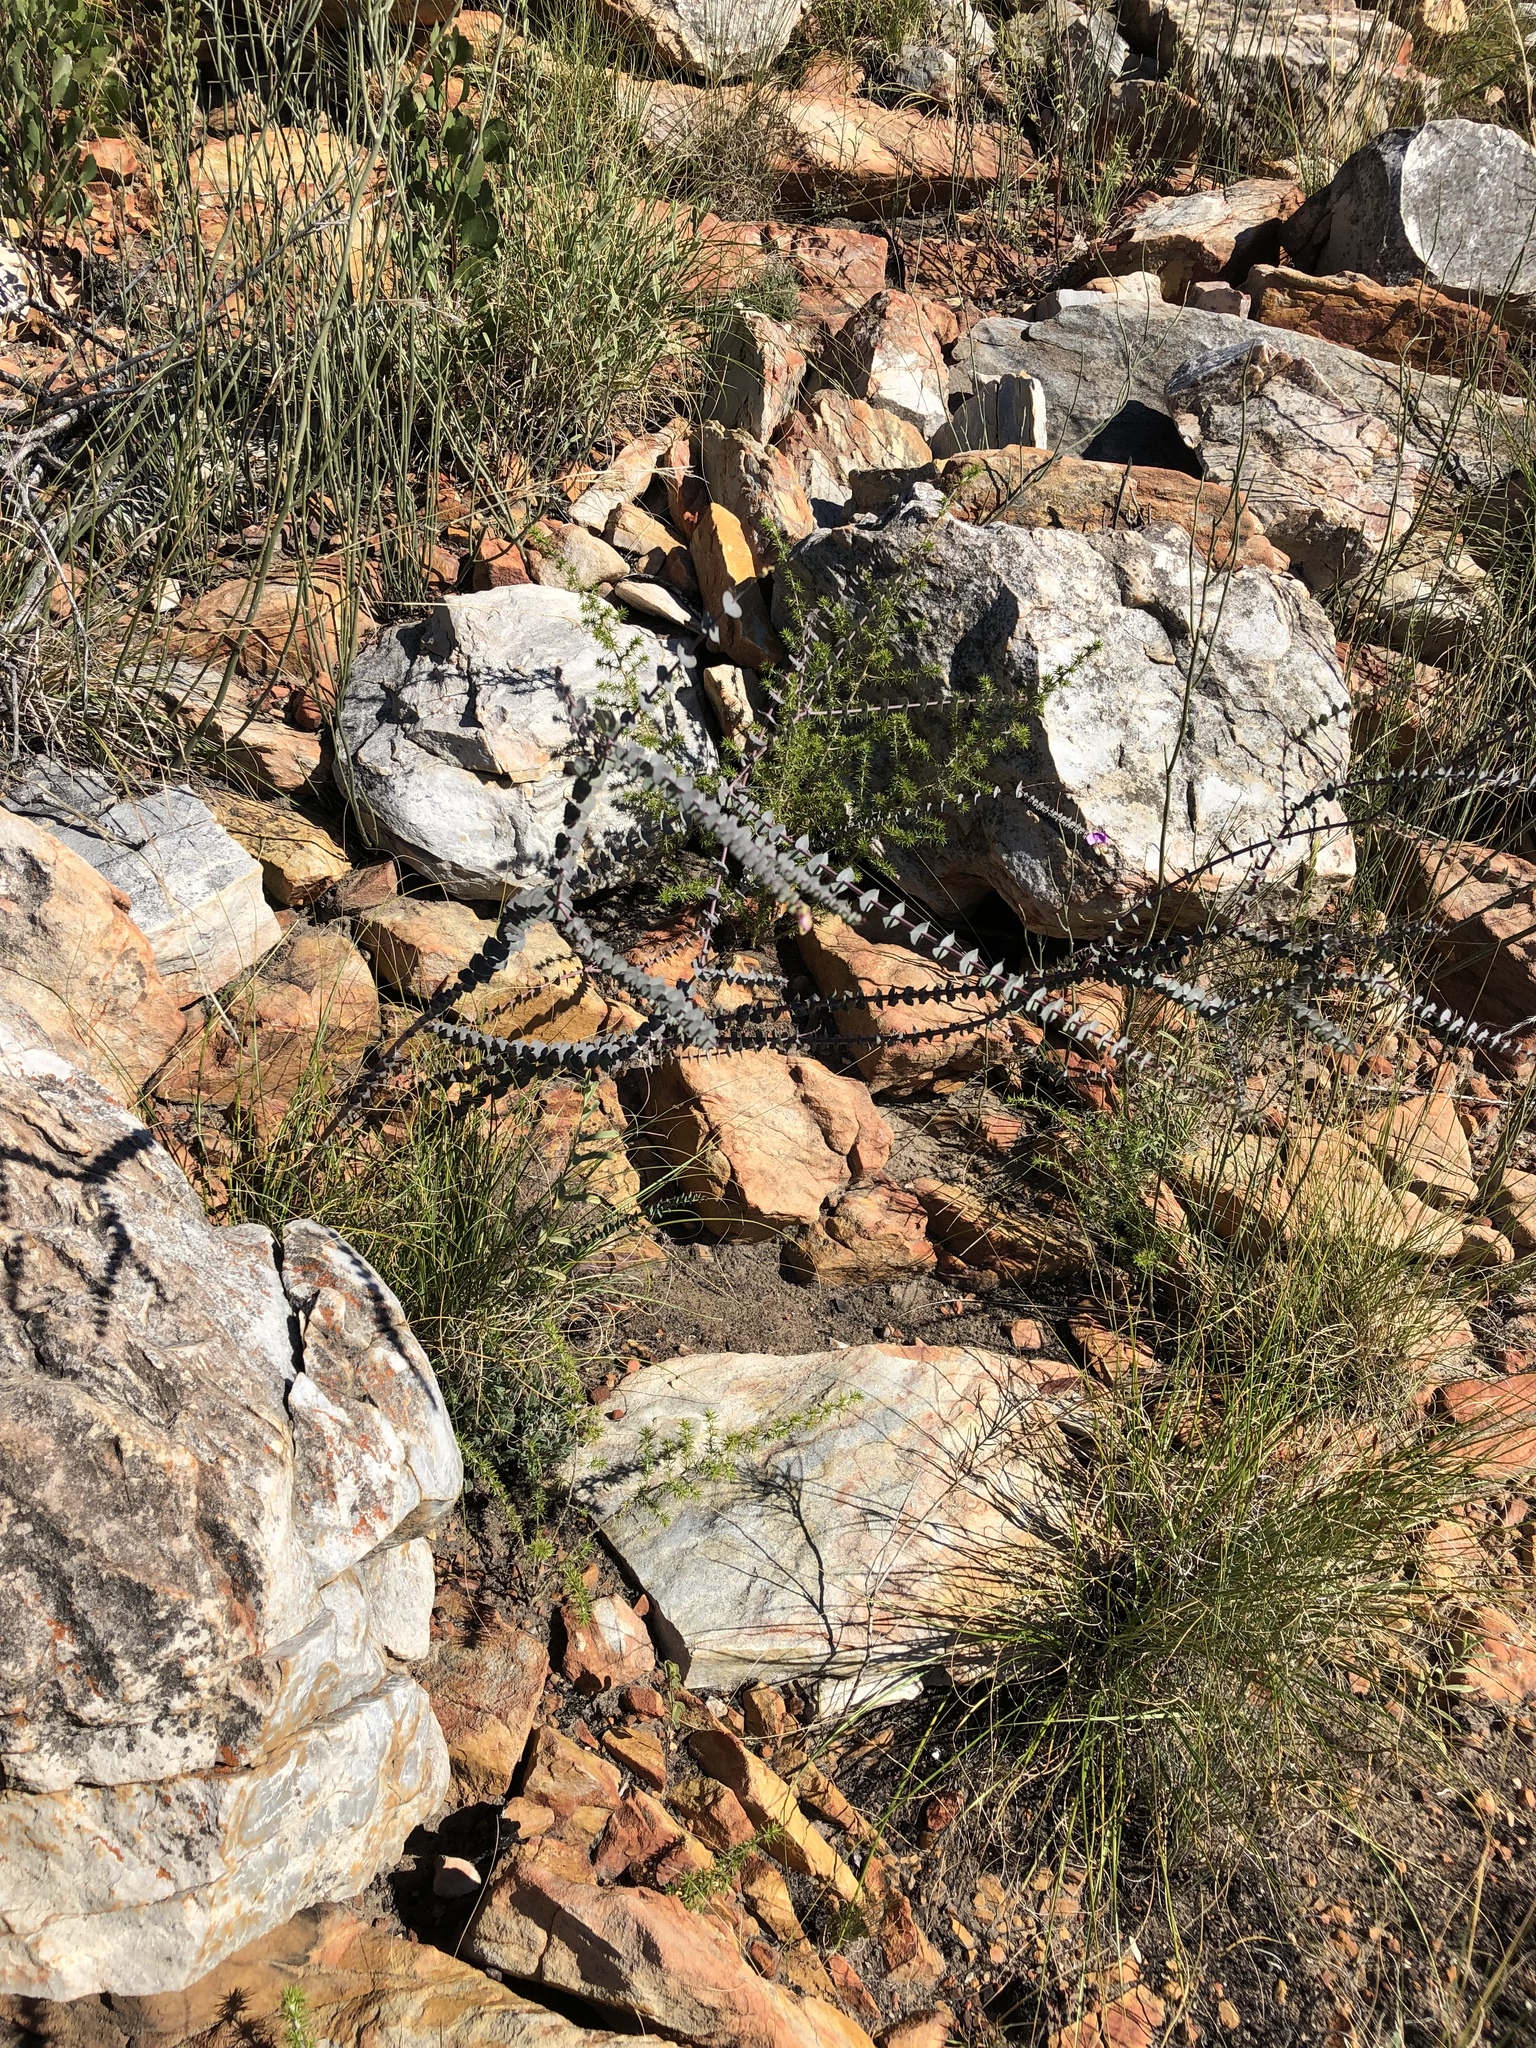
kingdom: Plantae
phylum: Tracheophyta
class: Magnoliopsida
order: Fabales
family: Polygalaceae
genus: Polygala
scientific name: Polygala fruticosa
